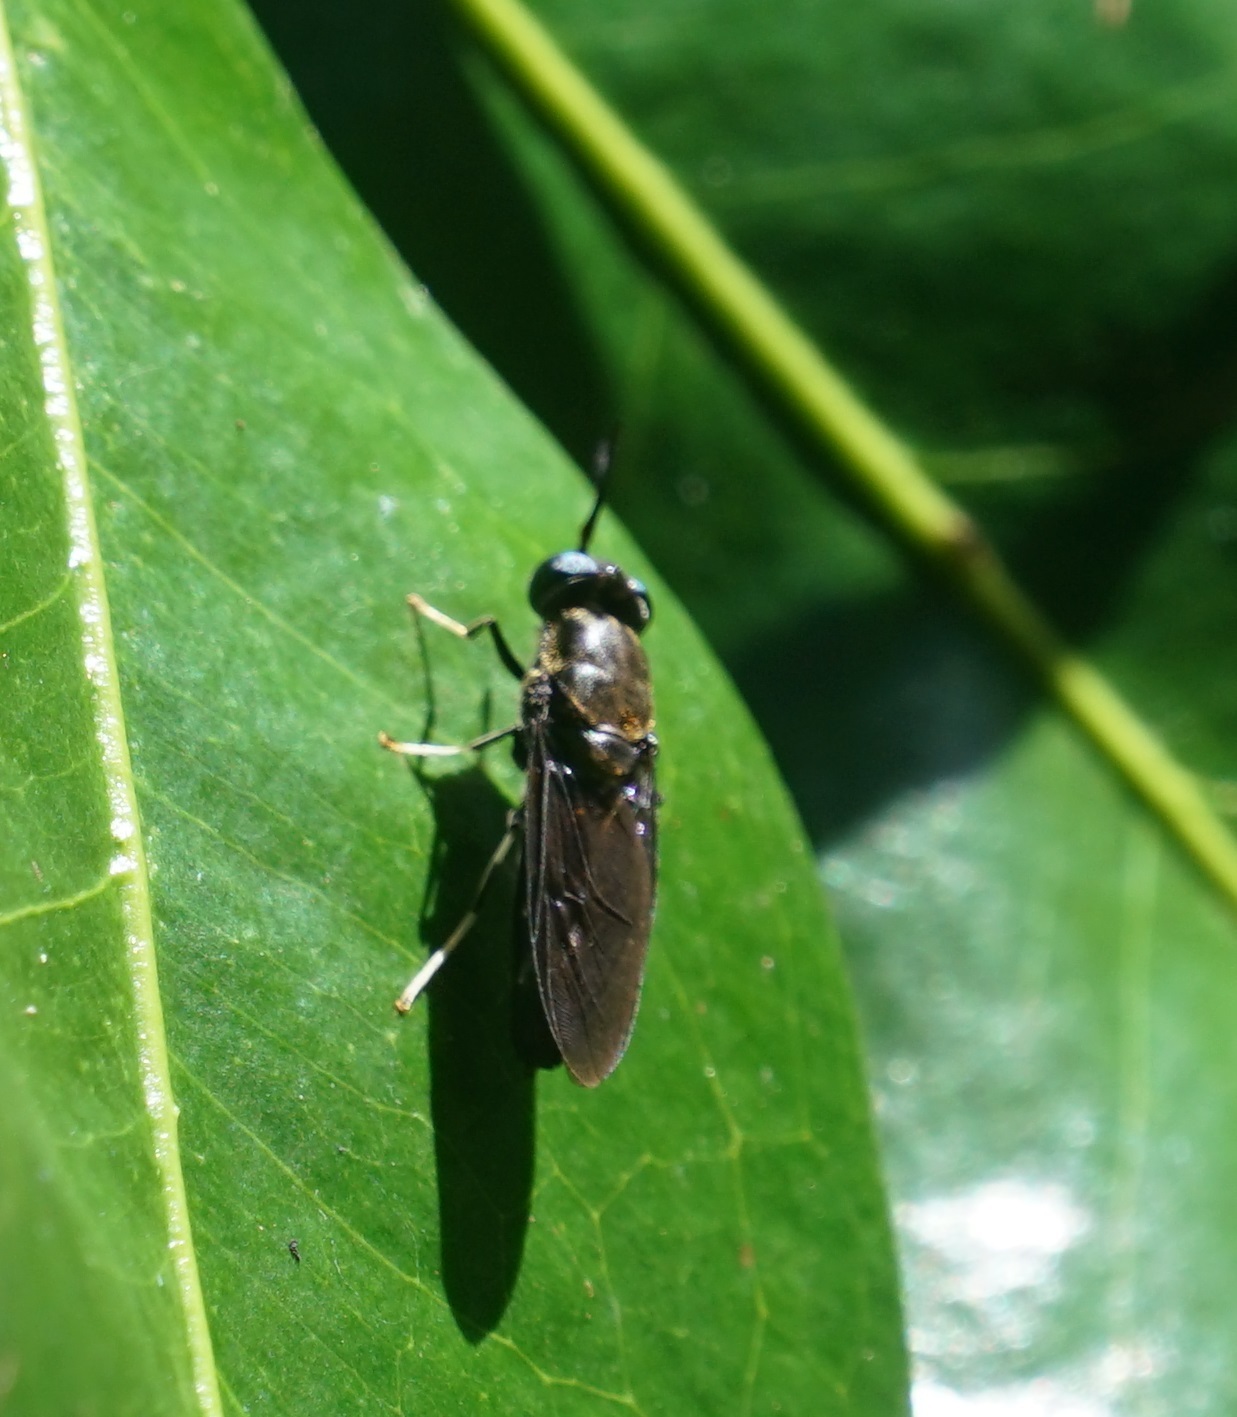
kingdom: Animalia
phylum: Arthropoda
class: Insecta
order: Diptera
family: Stratiomyidae
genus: Hermetia
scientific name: Hermetia illucens
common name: Black soldier fly
